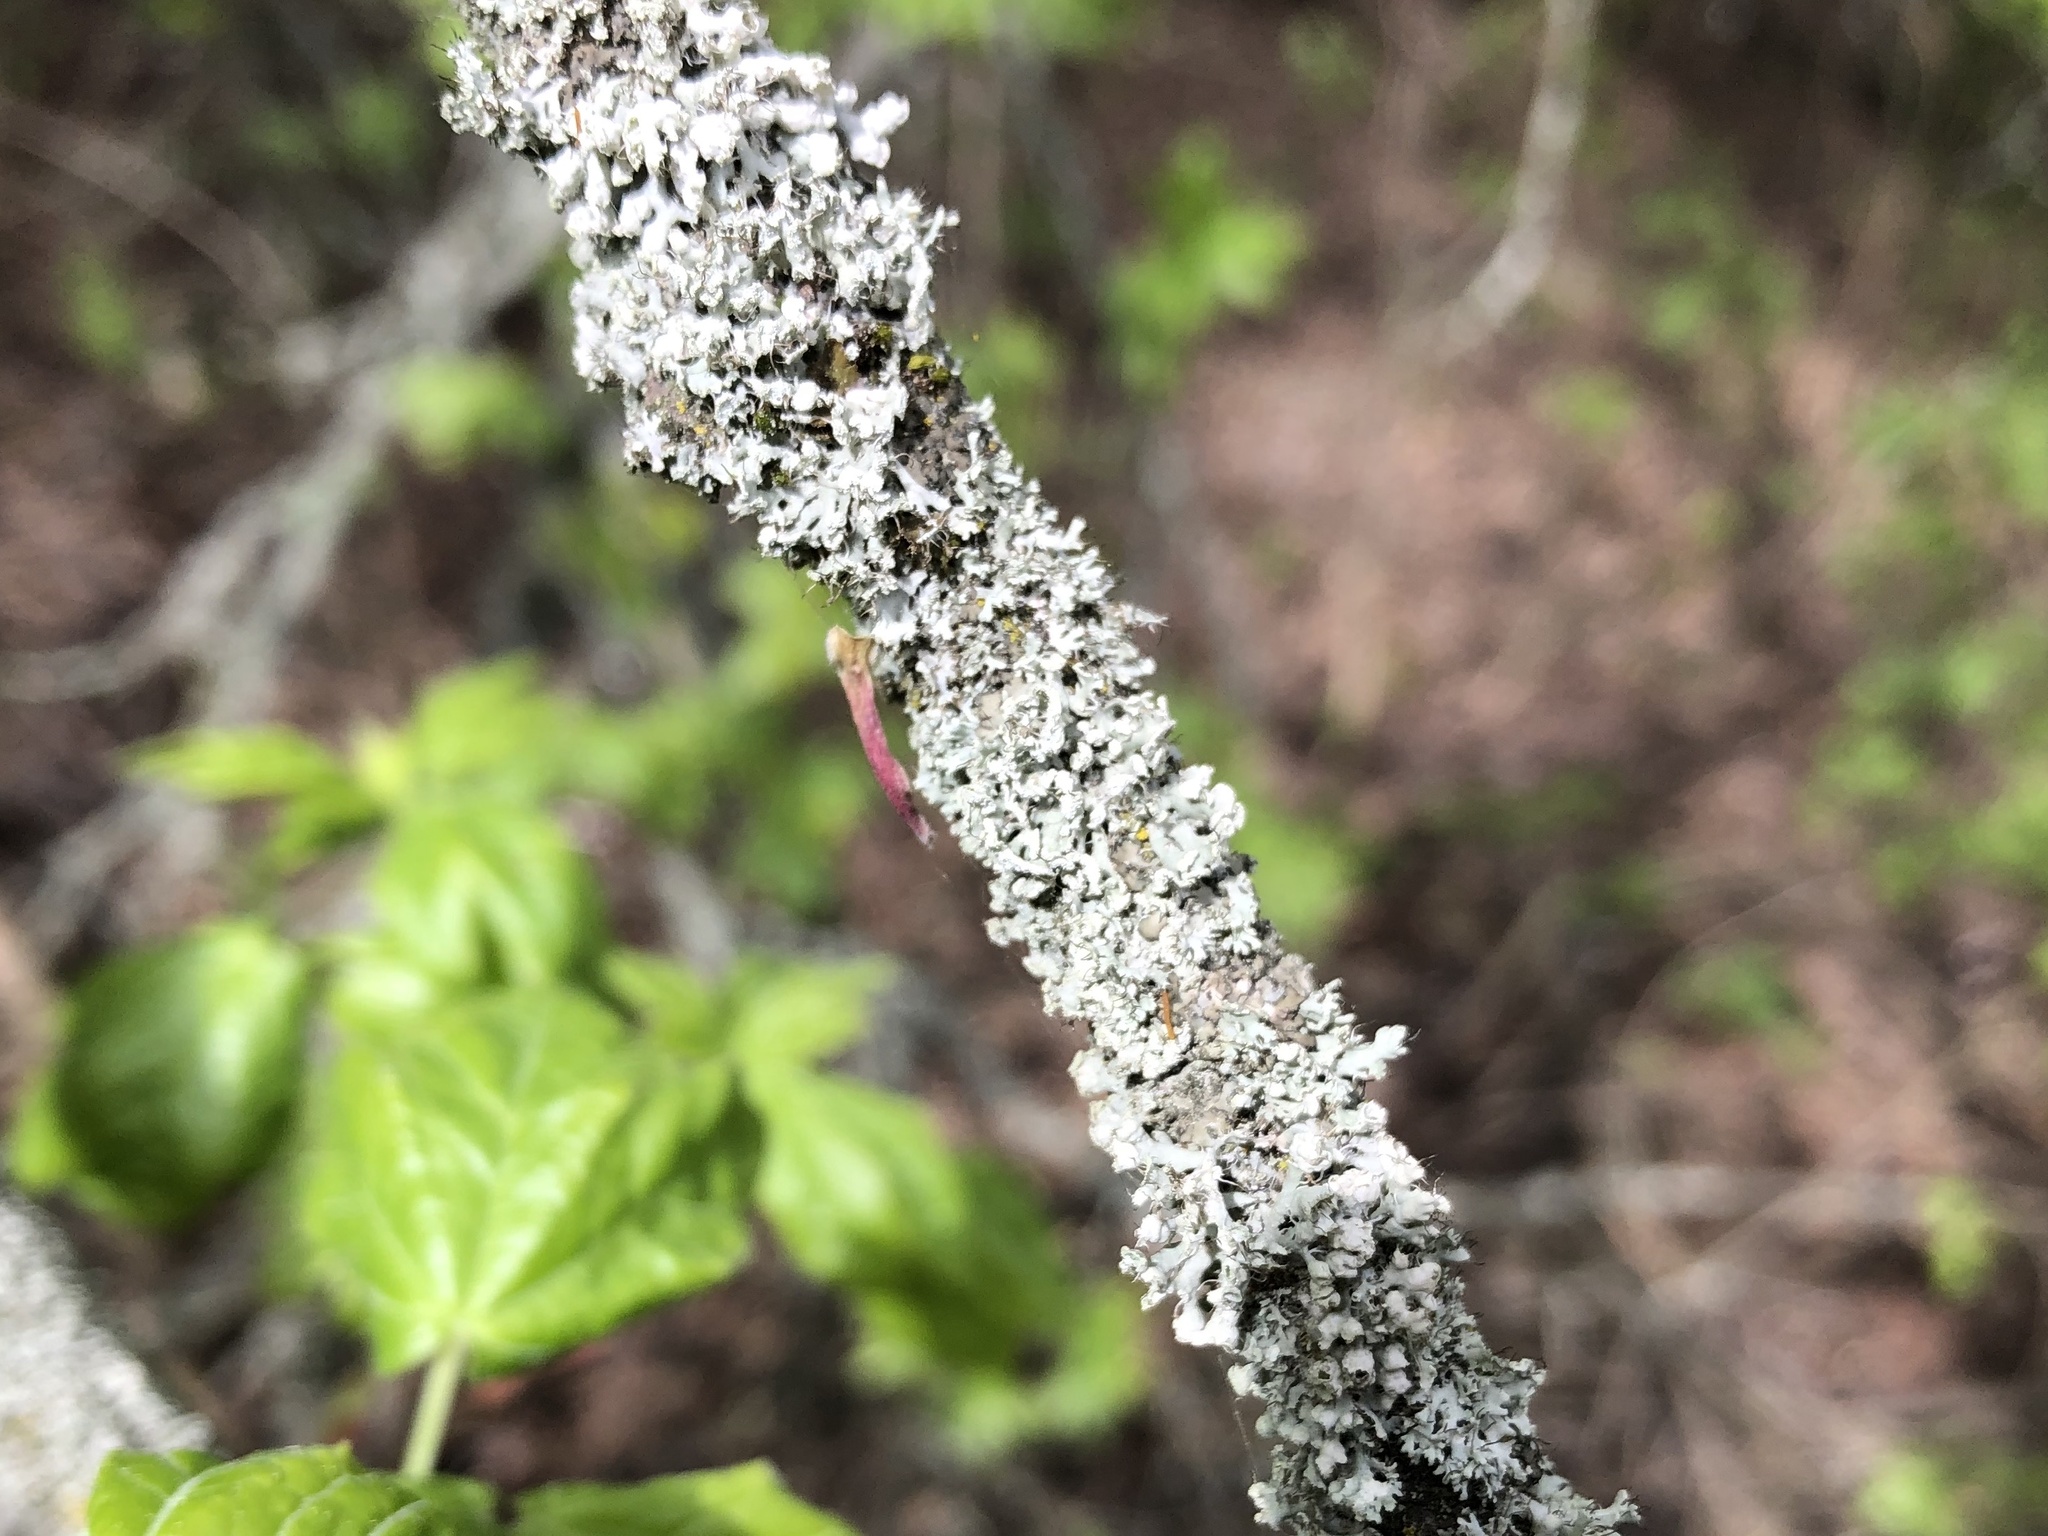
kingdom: Fungi
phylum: Ascomycota
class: Lecanoromycetes
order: Caliciales
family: Physciaceae
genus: Physcia
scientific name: Physcia adscendens
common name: Hooded rosette lichen
